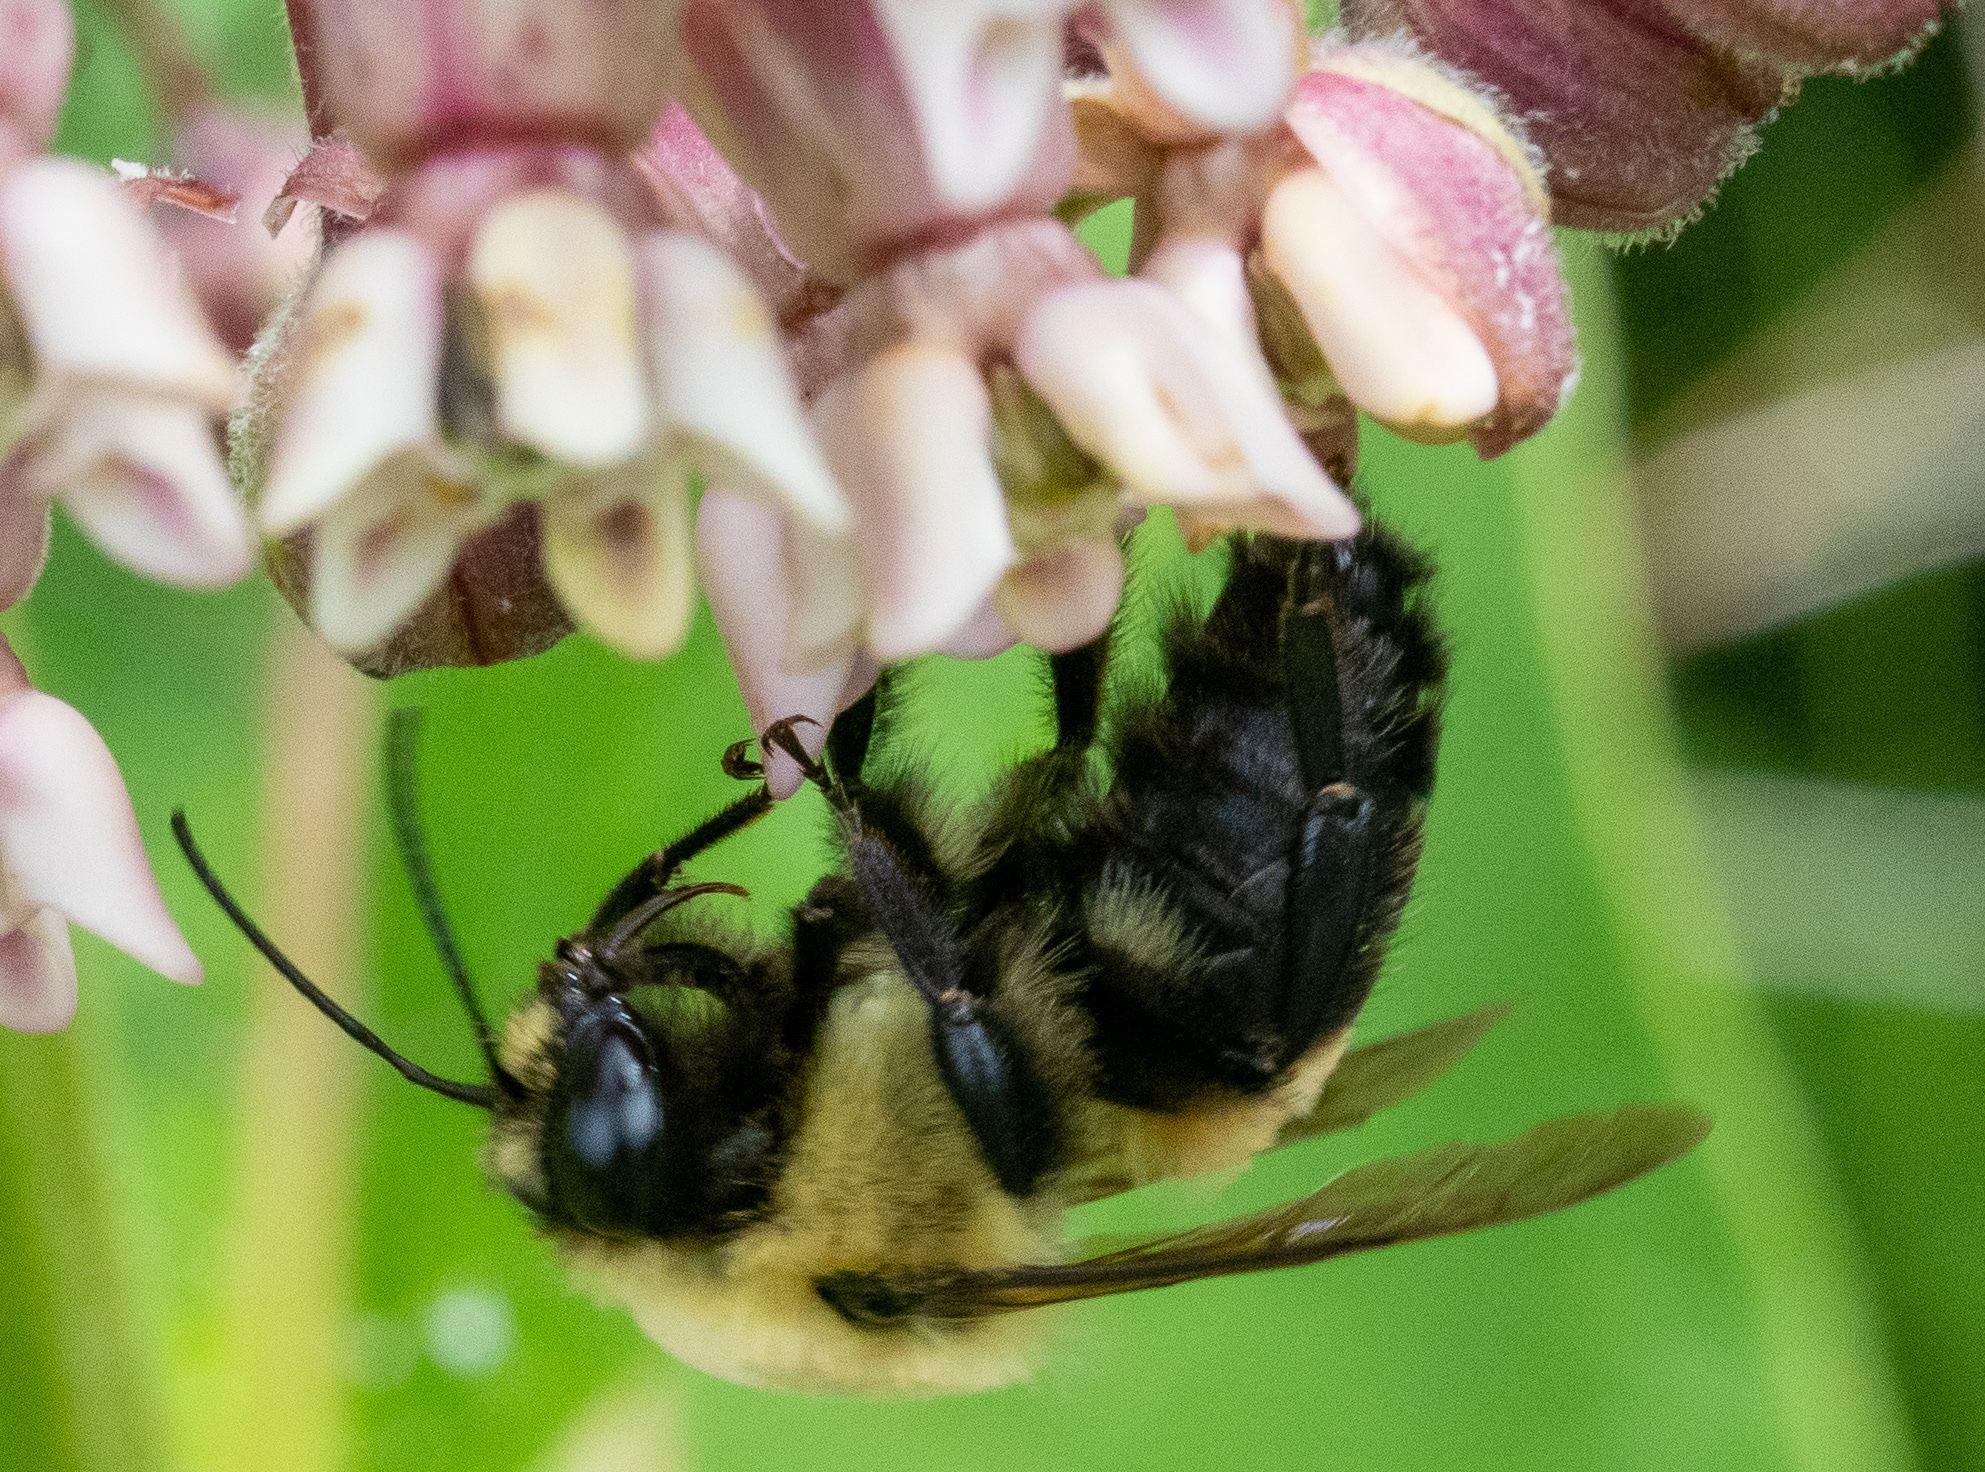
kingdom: Animalia
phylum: Arthropoda
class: Insecta
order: Hymenoptera
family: Apidae
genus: Bombus
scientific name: Bombus griseocollis
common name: Brown-belted bumble bee
